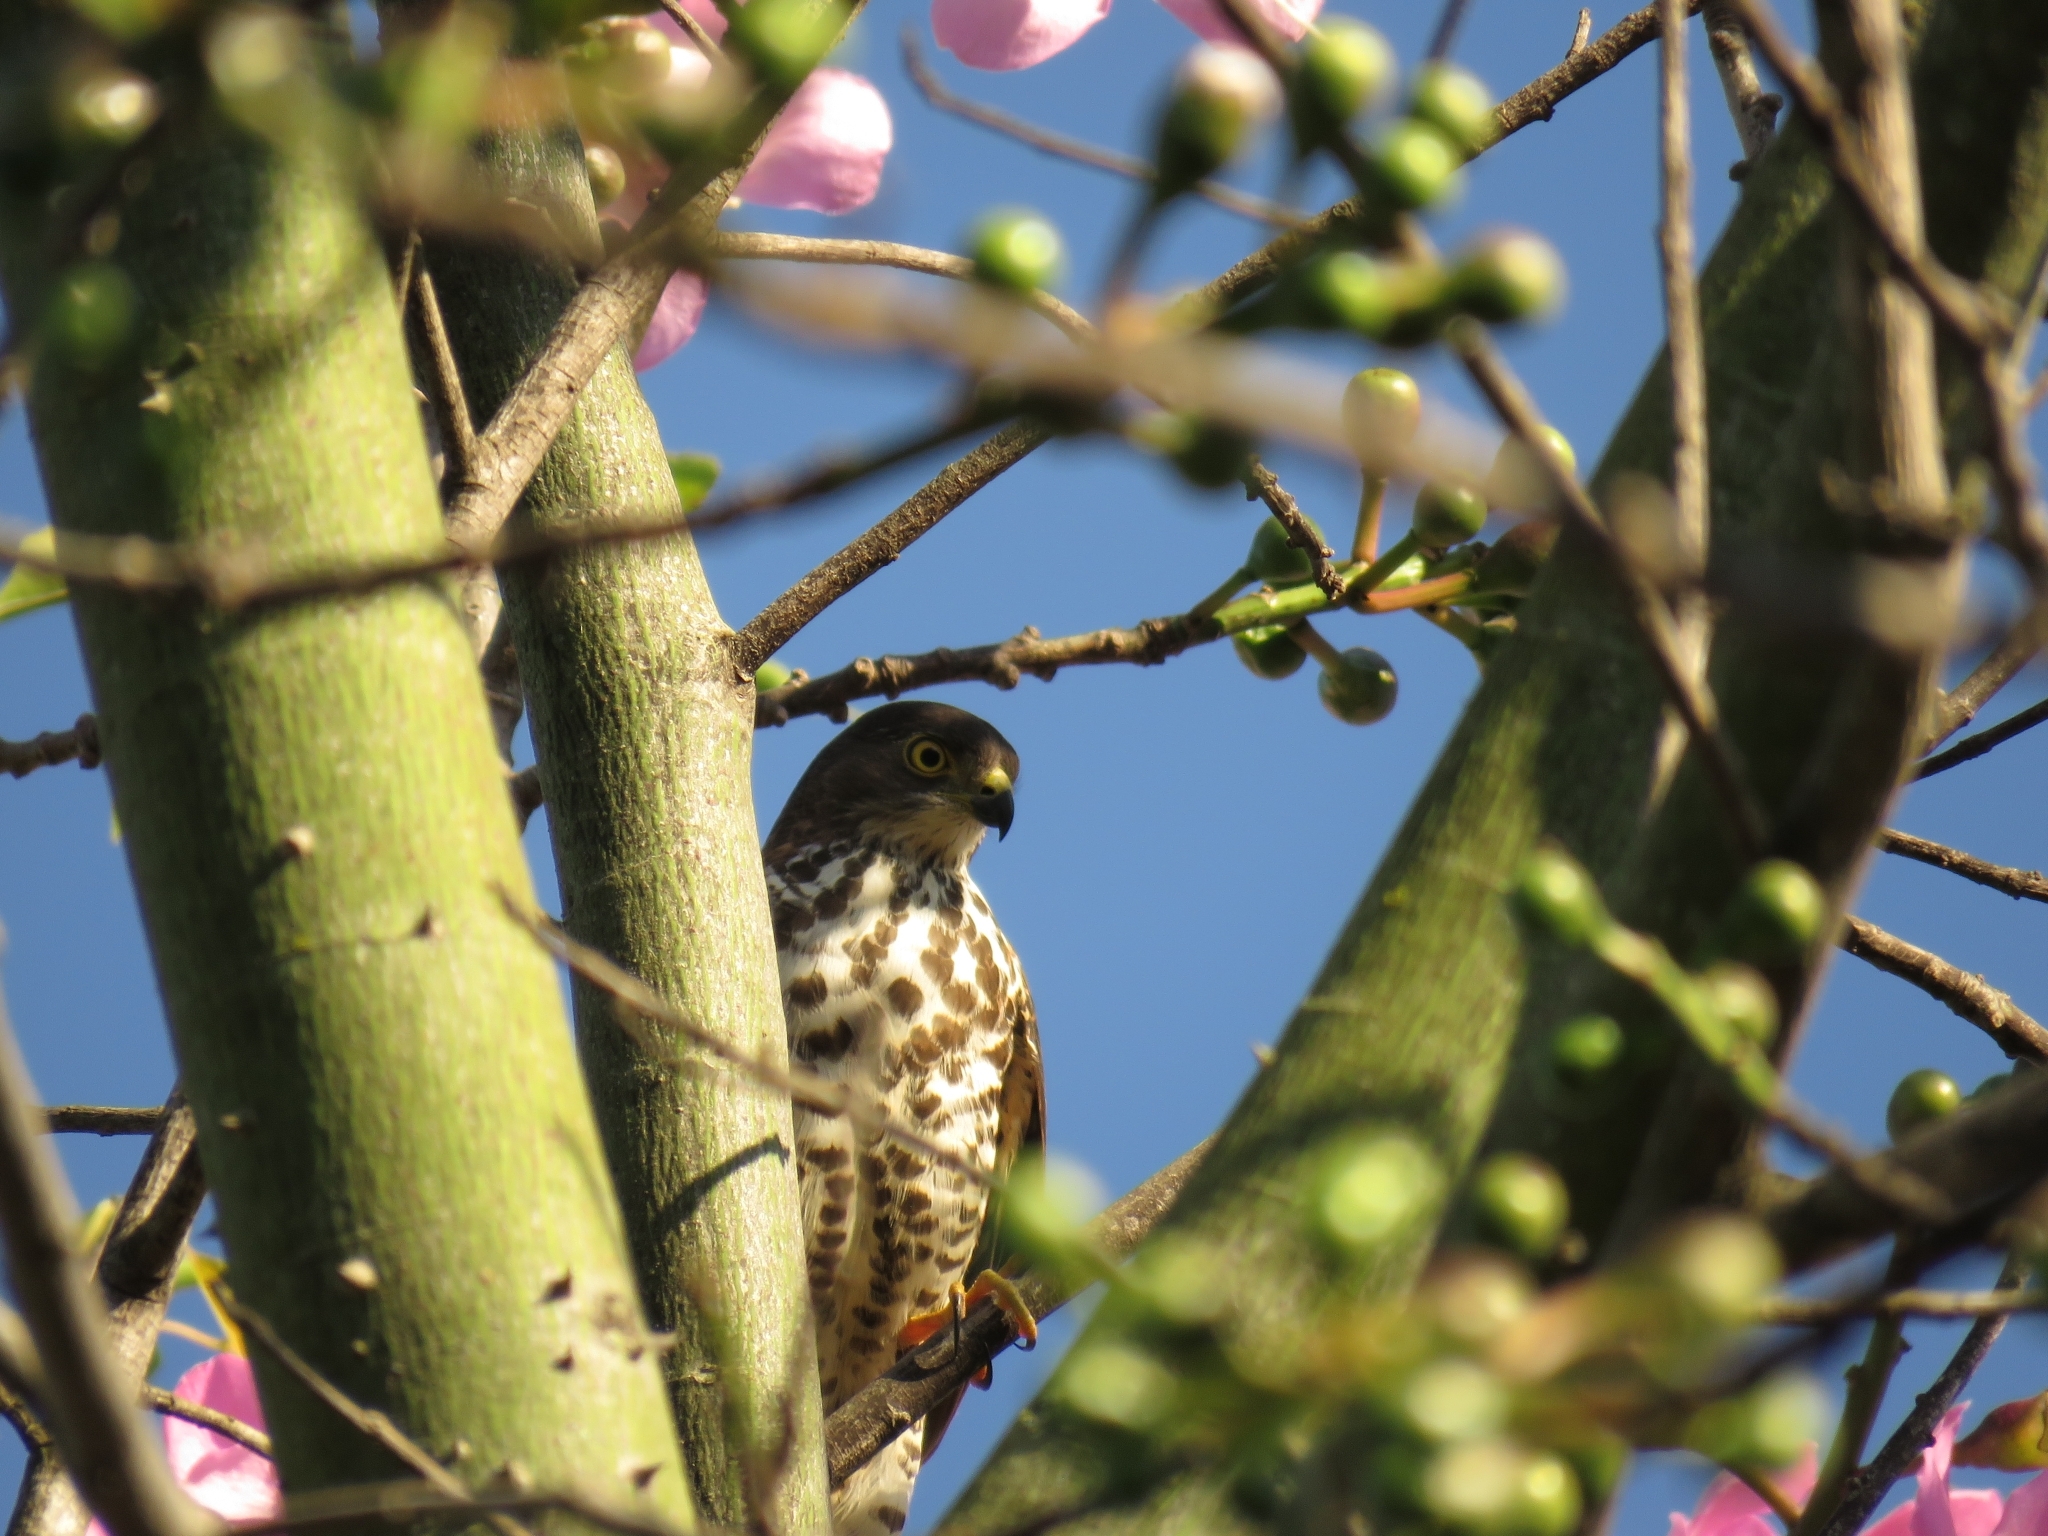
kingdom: Animalia
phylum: Chordata
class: Aves
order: Accipitriformes
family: Accipitridae
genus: Accipiter
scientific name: Accipiter minullus
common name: Little sparrowhawk
